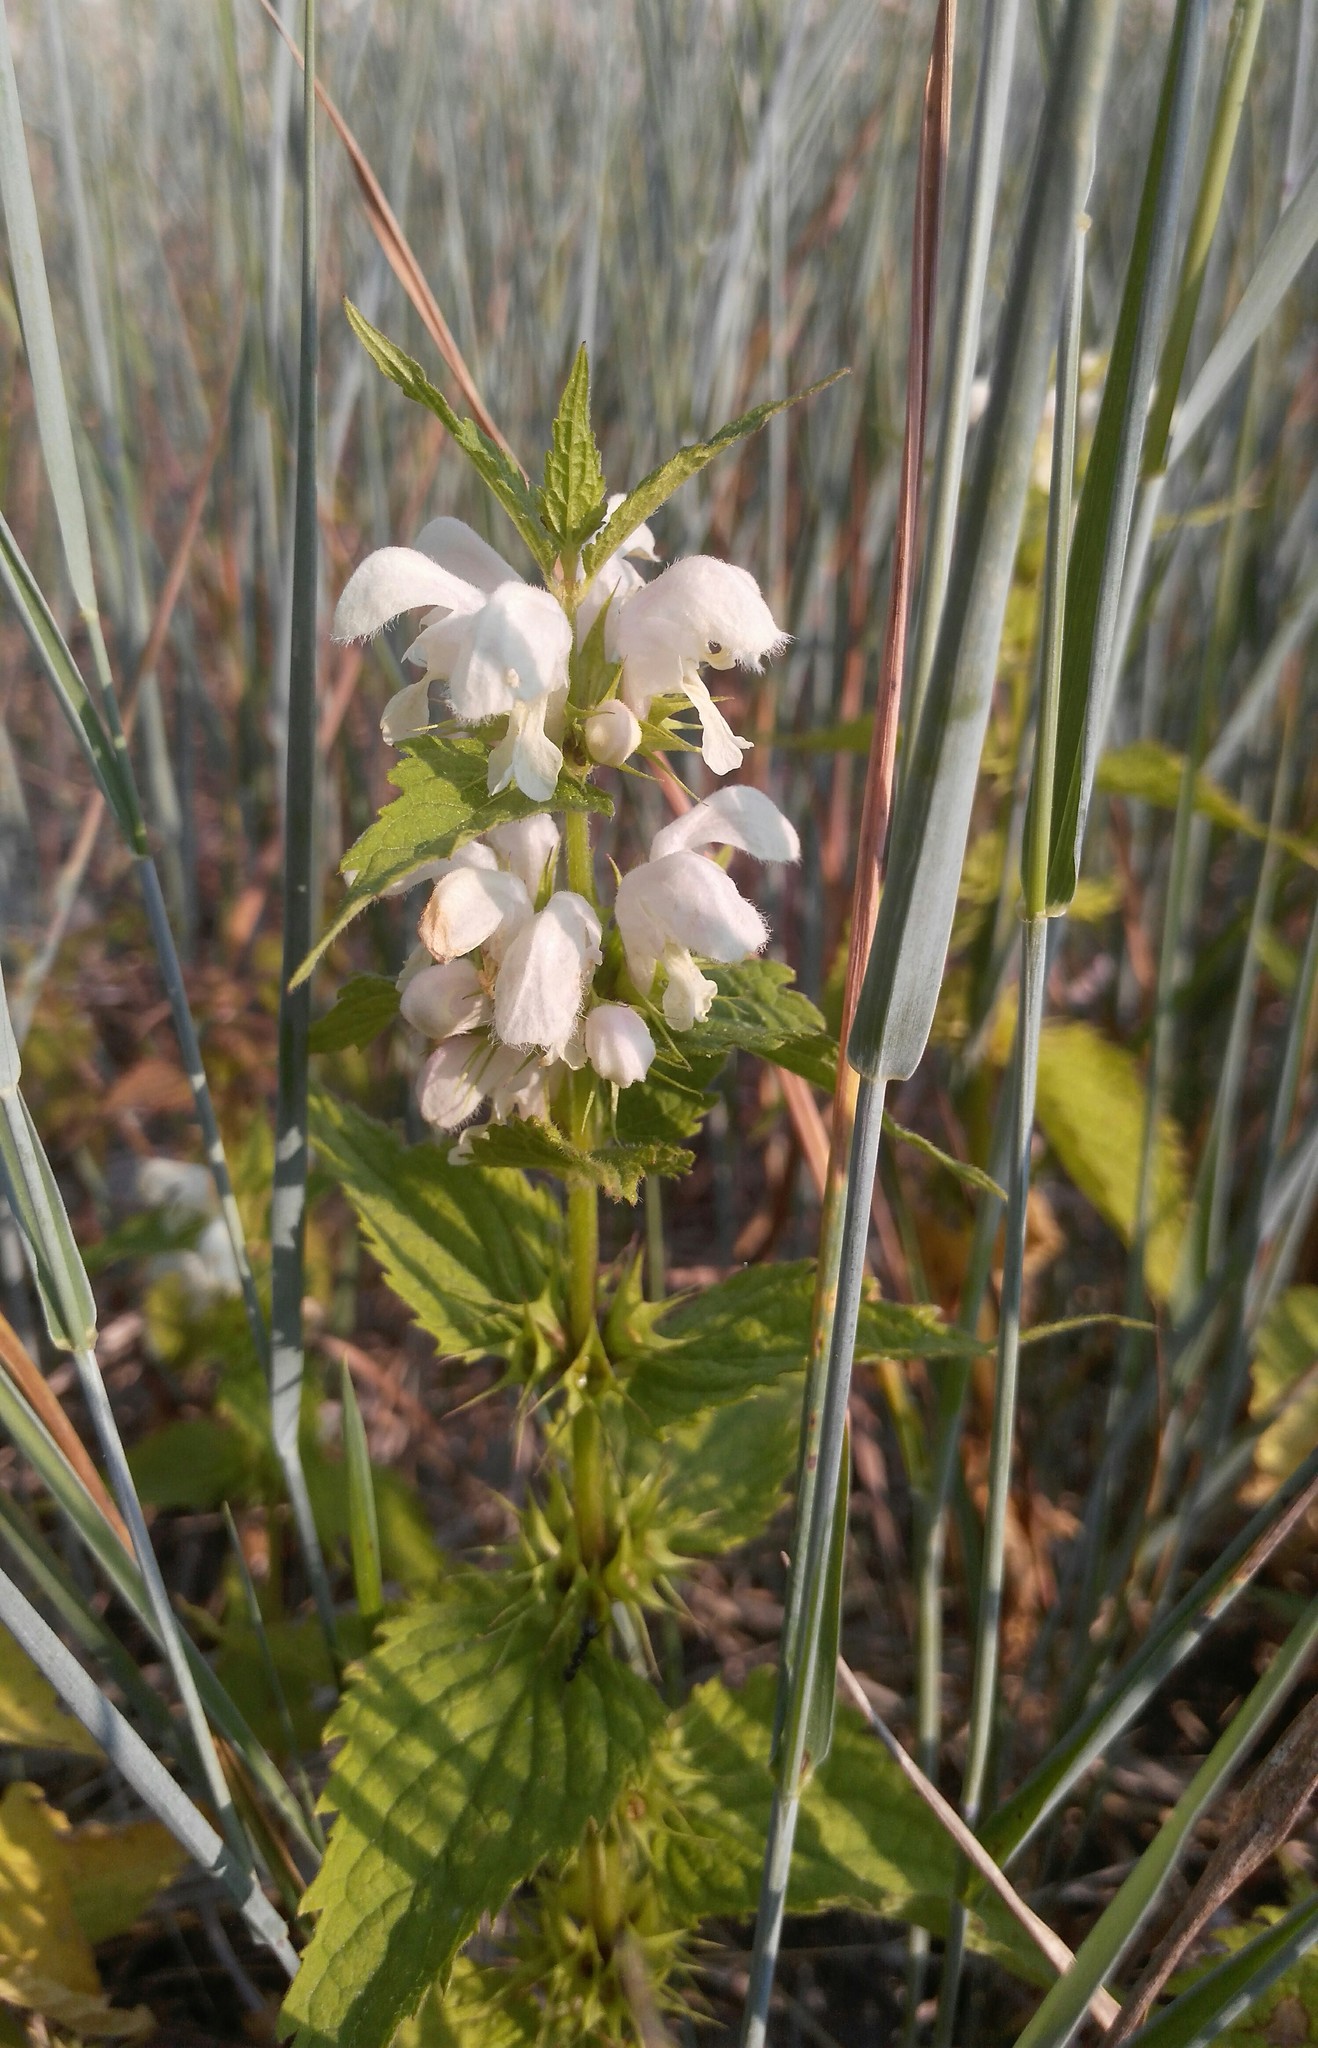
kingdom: Plantae
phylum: Tracheophyta
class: Magnoliopsida
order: Lamiales
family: Lamiaceae
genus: Lamium
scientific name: Lamium album
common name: White dead-nettle
